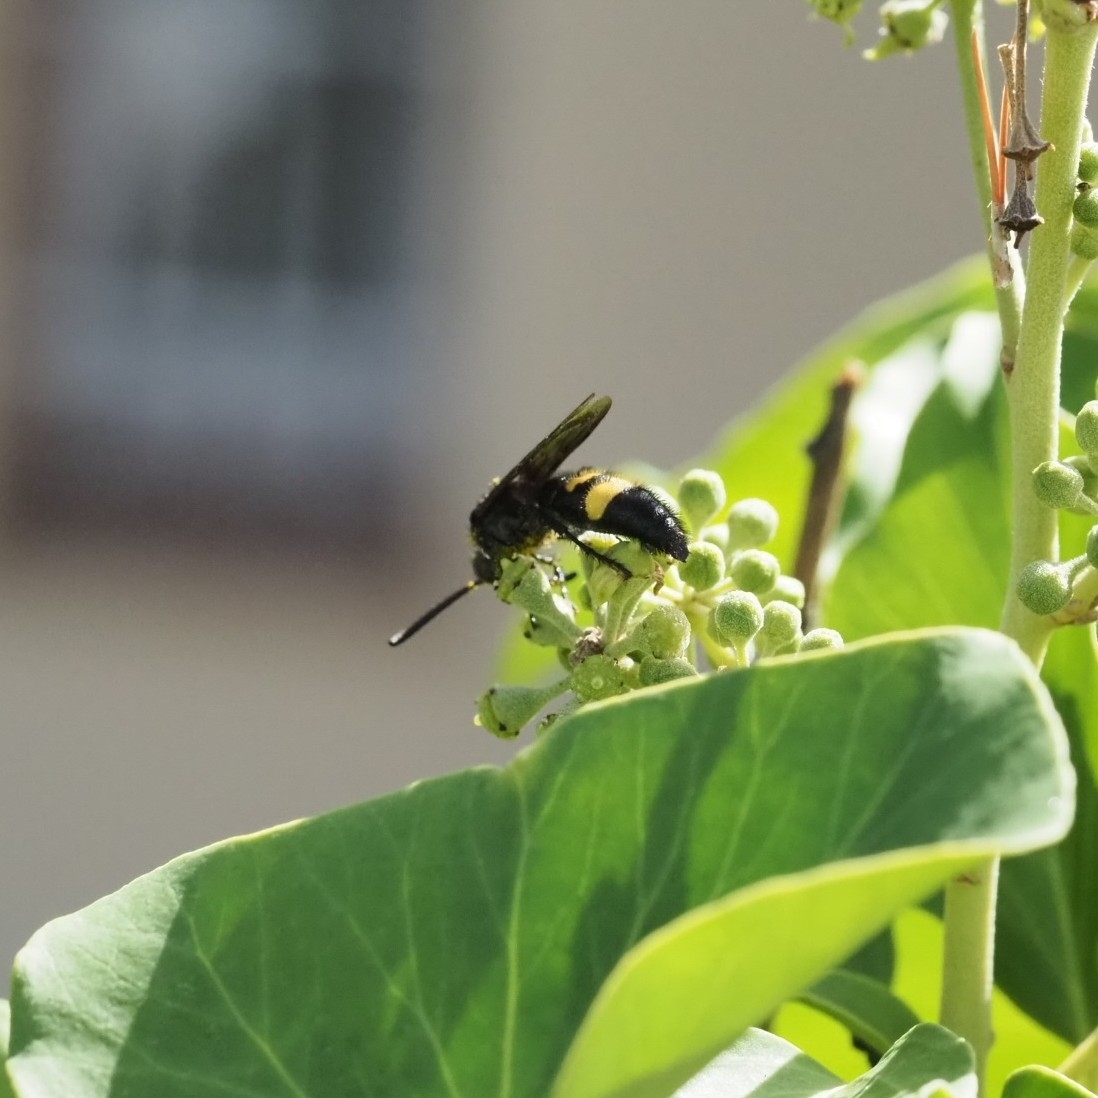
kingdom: Animalia
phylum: Arthropoda
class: Insecta
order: Hymenoptera
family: Scoliidae
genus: Scolia
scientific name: Scolia hirta
